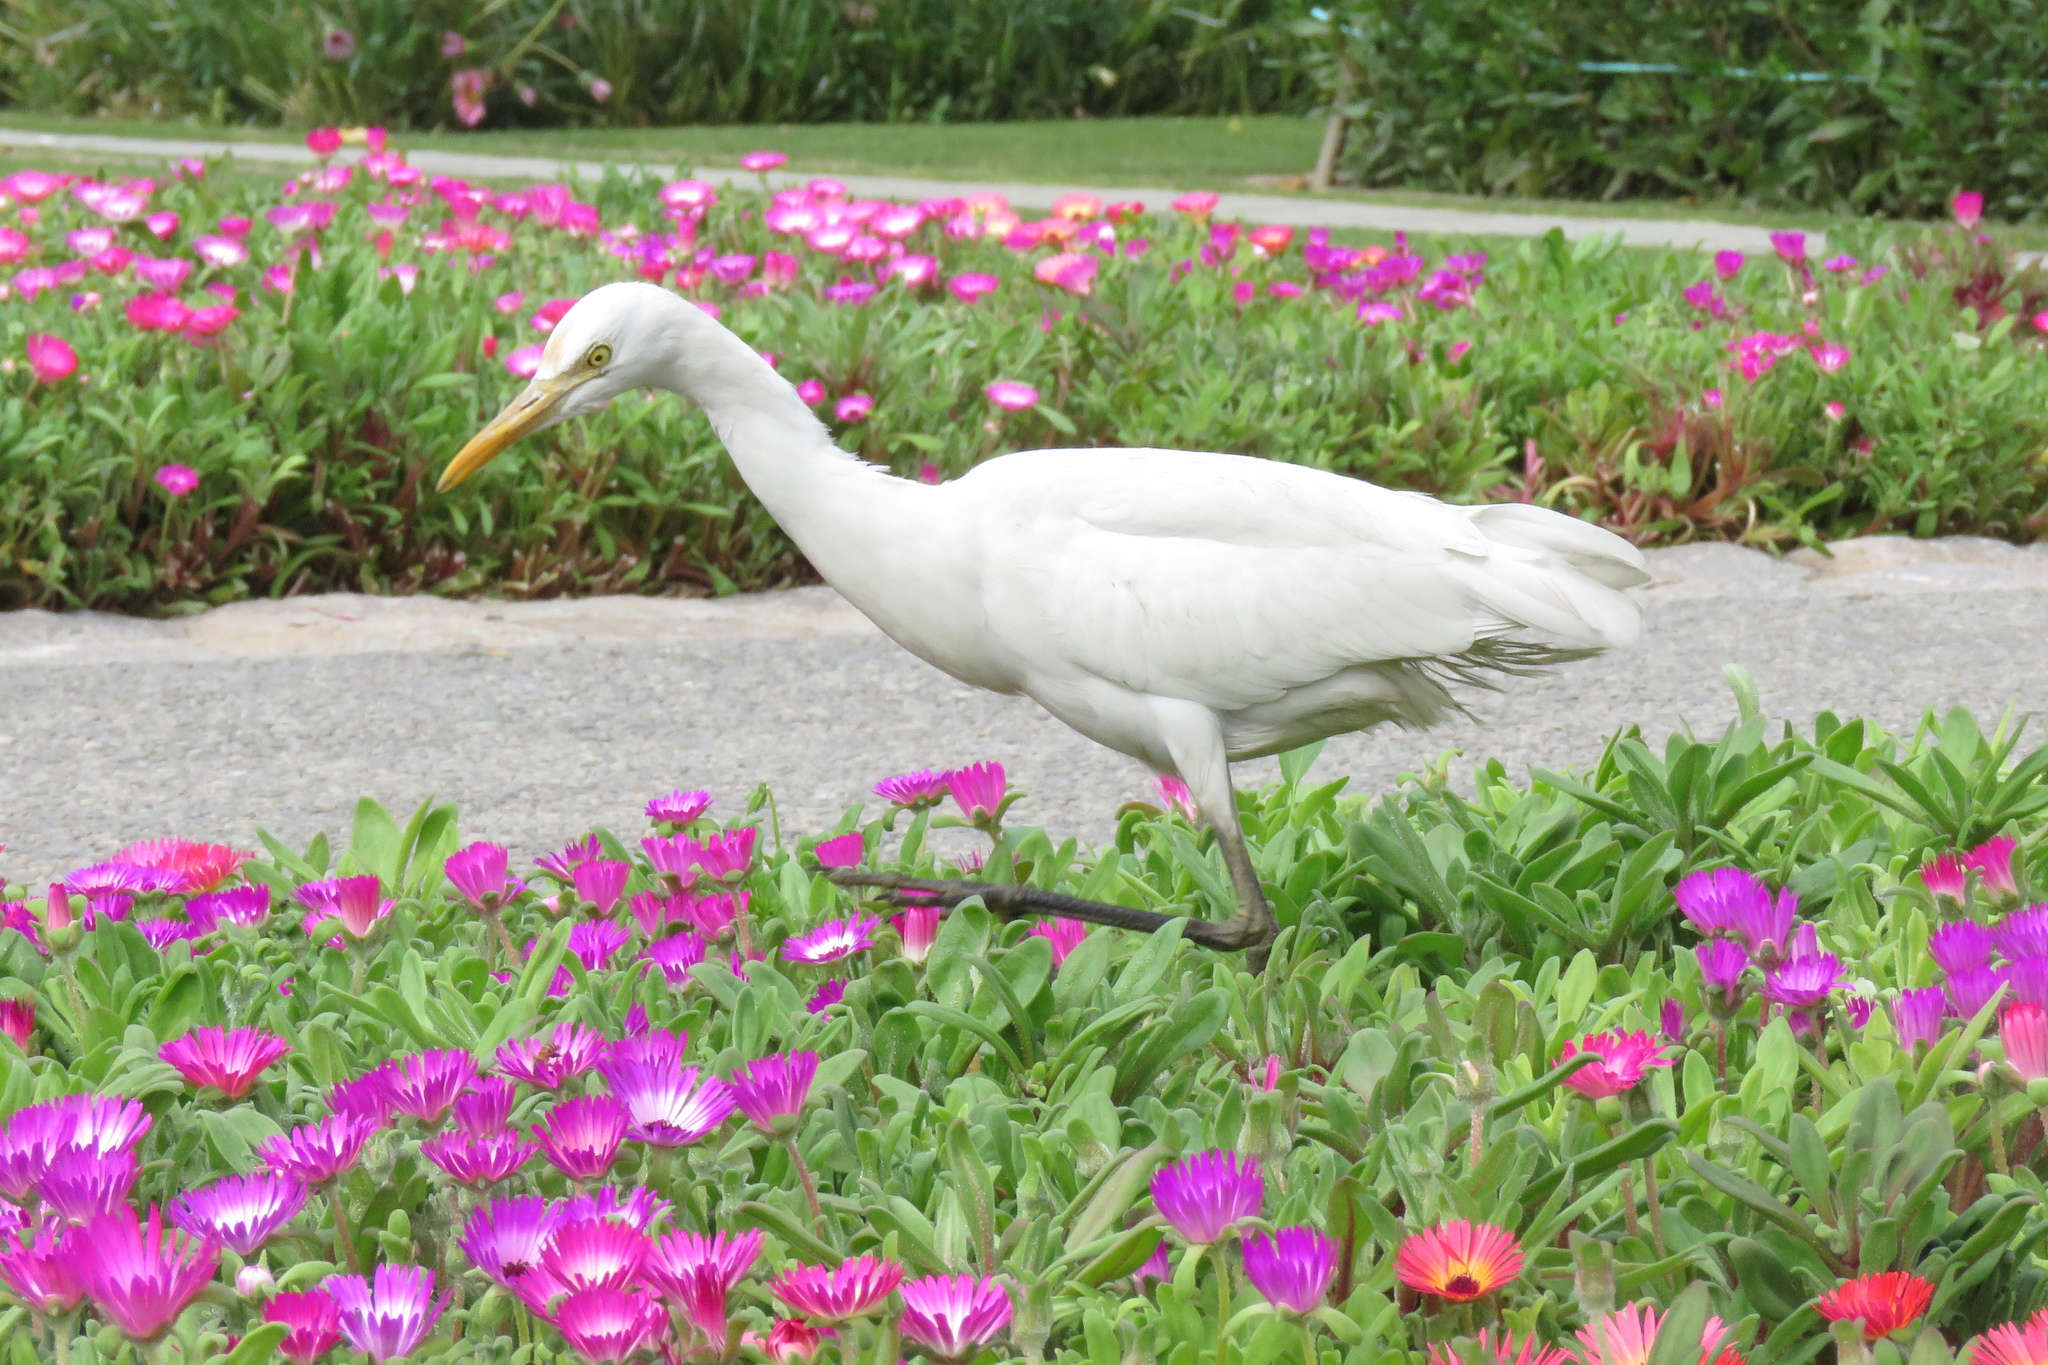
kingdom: Animalia
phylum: Chordata
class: Aves
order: Pelecaniformes
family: Ardeidae
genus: Bubulcus
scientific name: Bubulcus coromandus
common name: Eastern cattle egret
